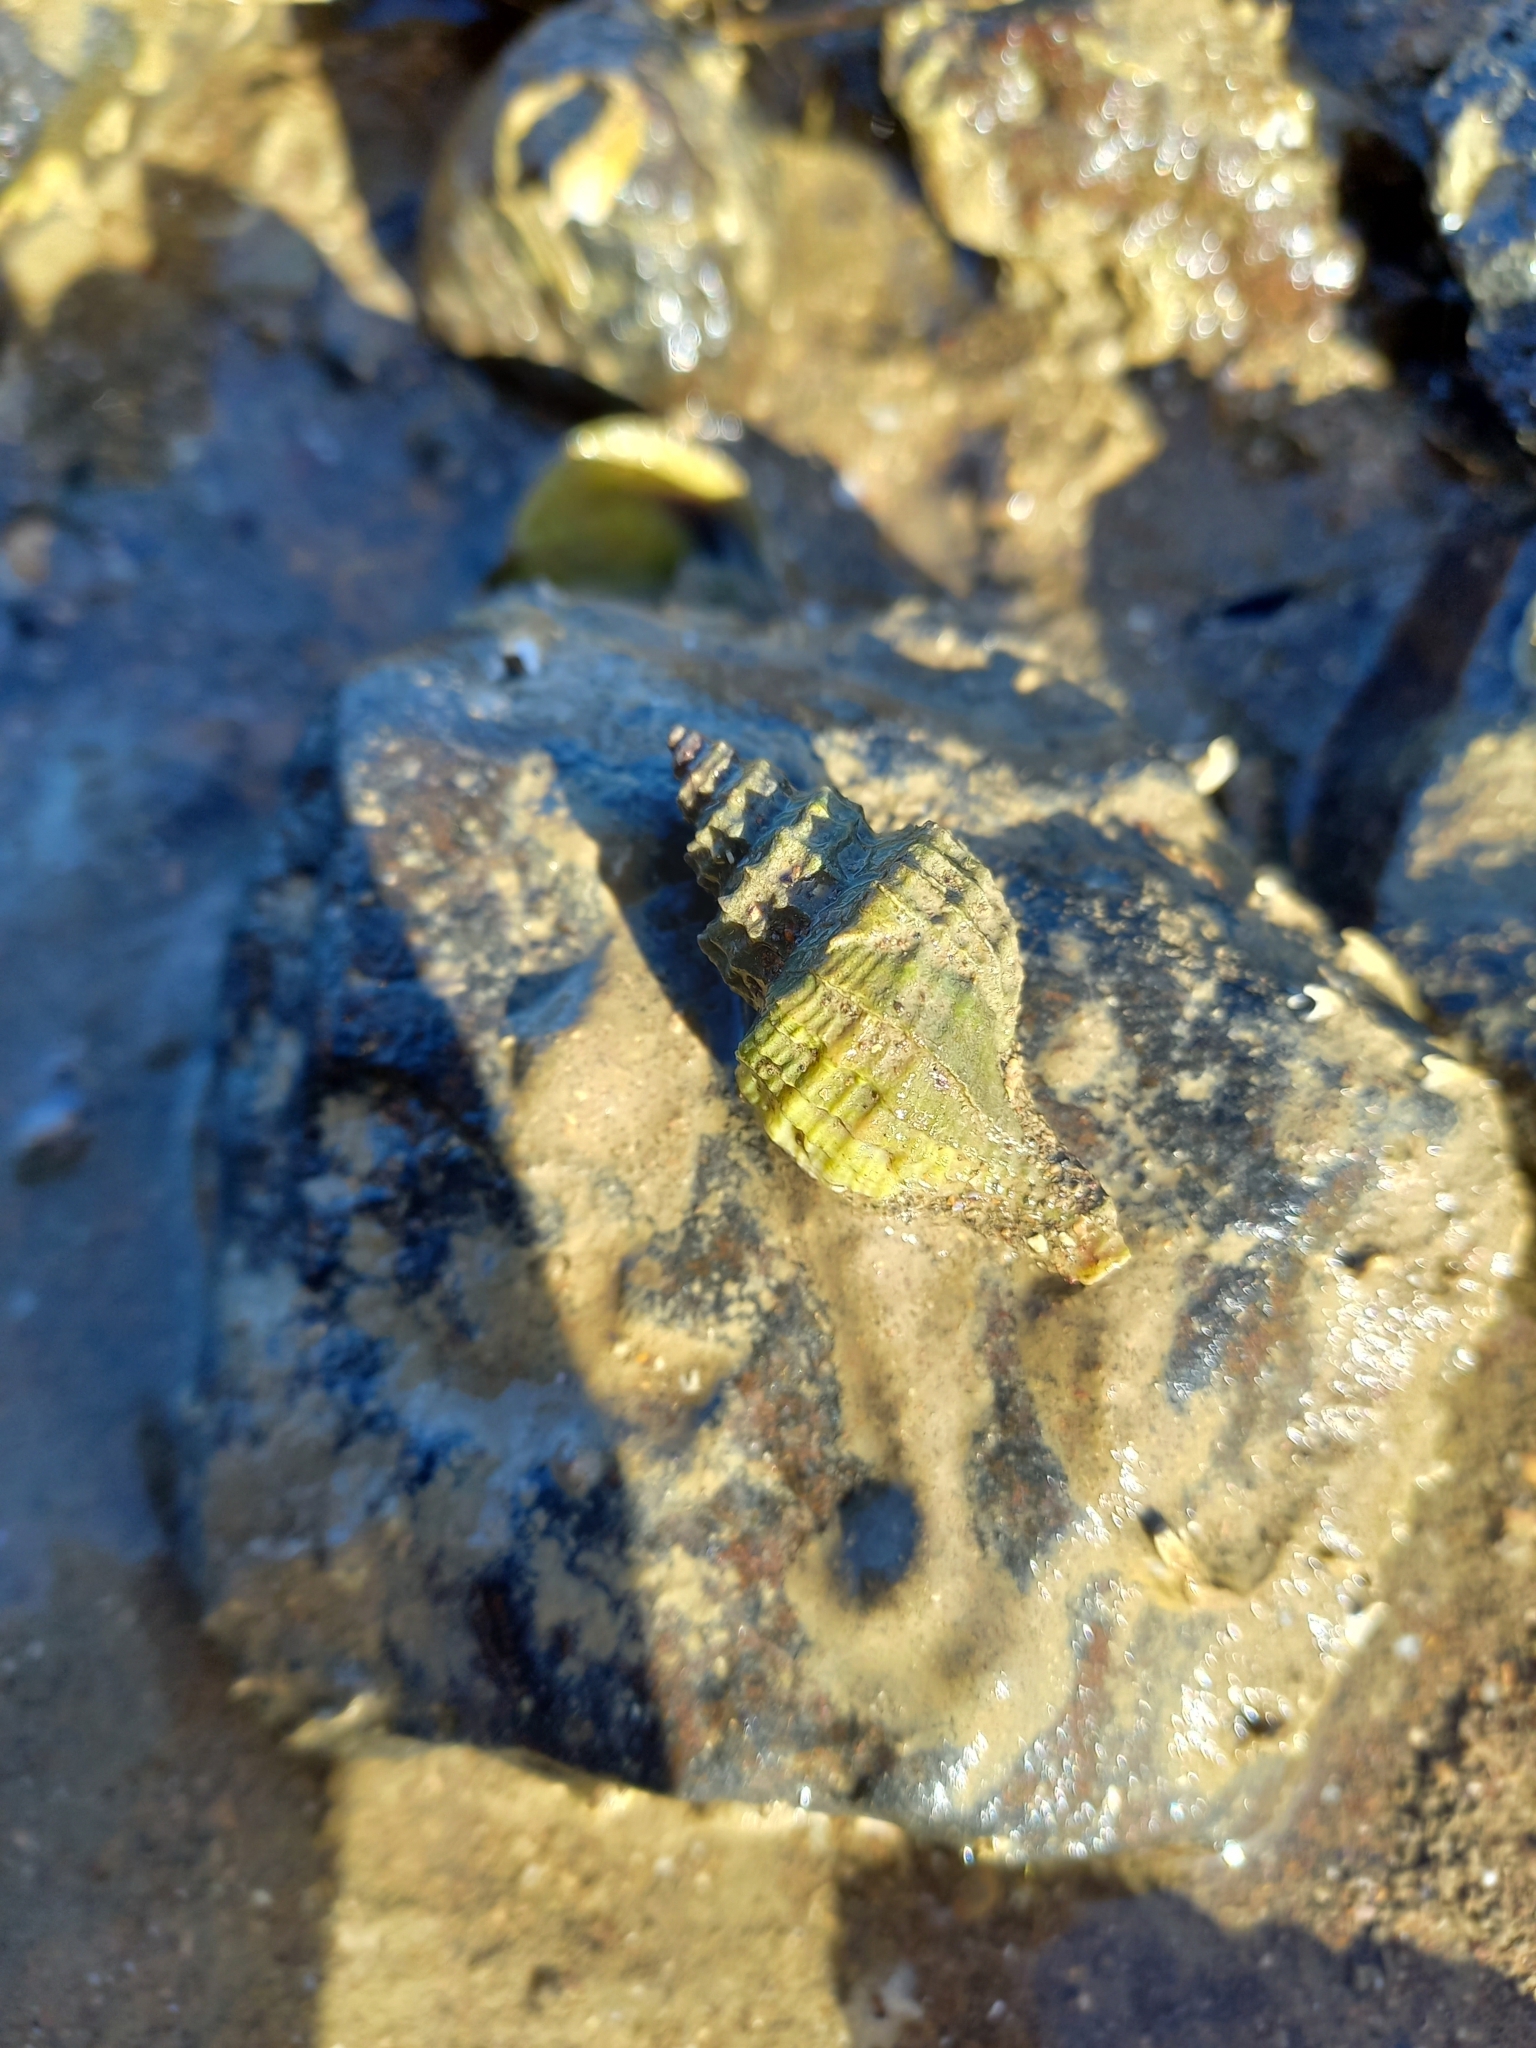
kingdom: Animalia
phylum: Mollusca
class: Gastropoda
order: Neogastropoda
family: Cominellidae
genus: Cominella
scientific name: Cominella maculosa
